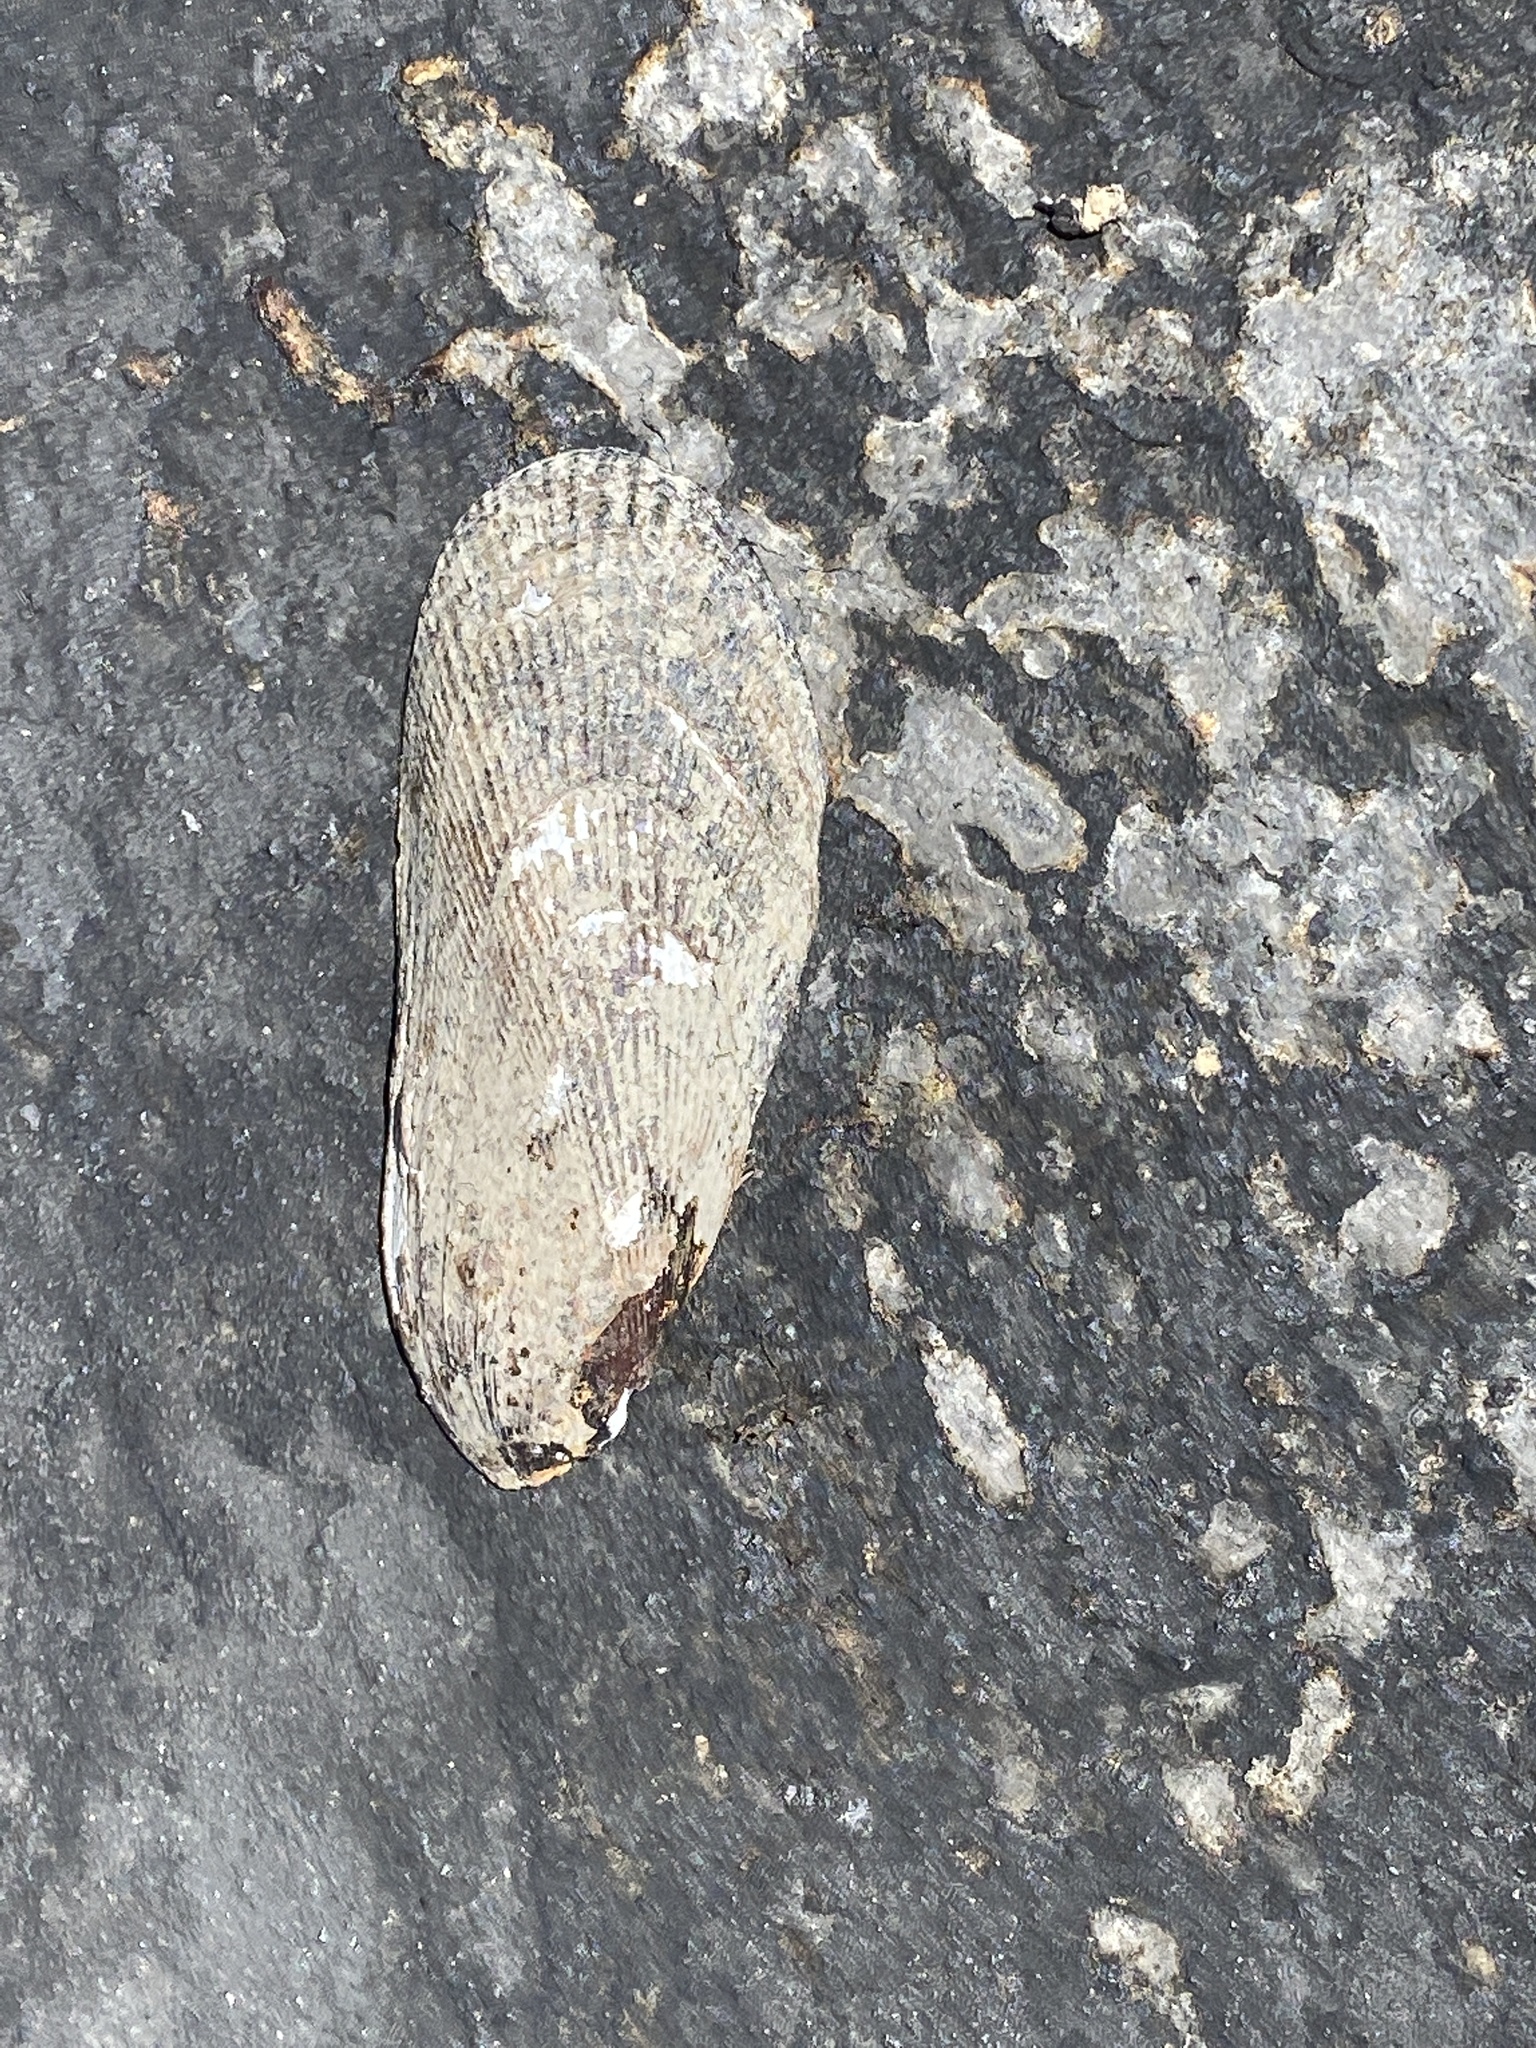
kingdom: Animalia
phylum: Mollusca
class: Bivalvia
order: Mytilida
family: Mytilidae
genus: Geukensia
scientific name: Geukensia demissa
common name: Ribbed mussel
